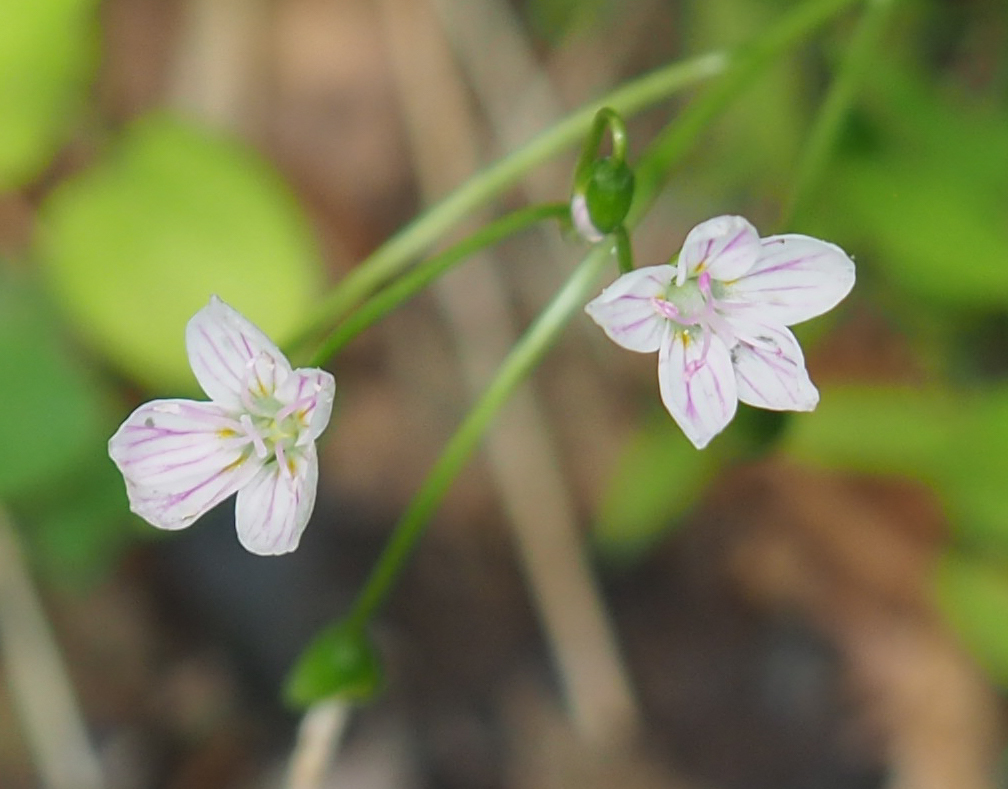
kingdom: Plantae
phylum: Tracheophyta
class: Magnoliopsida
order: Caryophyllales
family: Montiaceae
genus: Claytonia
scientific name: Claytonia virginica
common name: Virginia springbeauty
